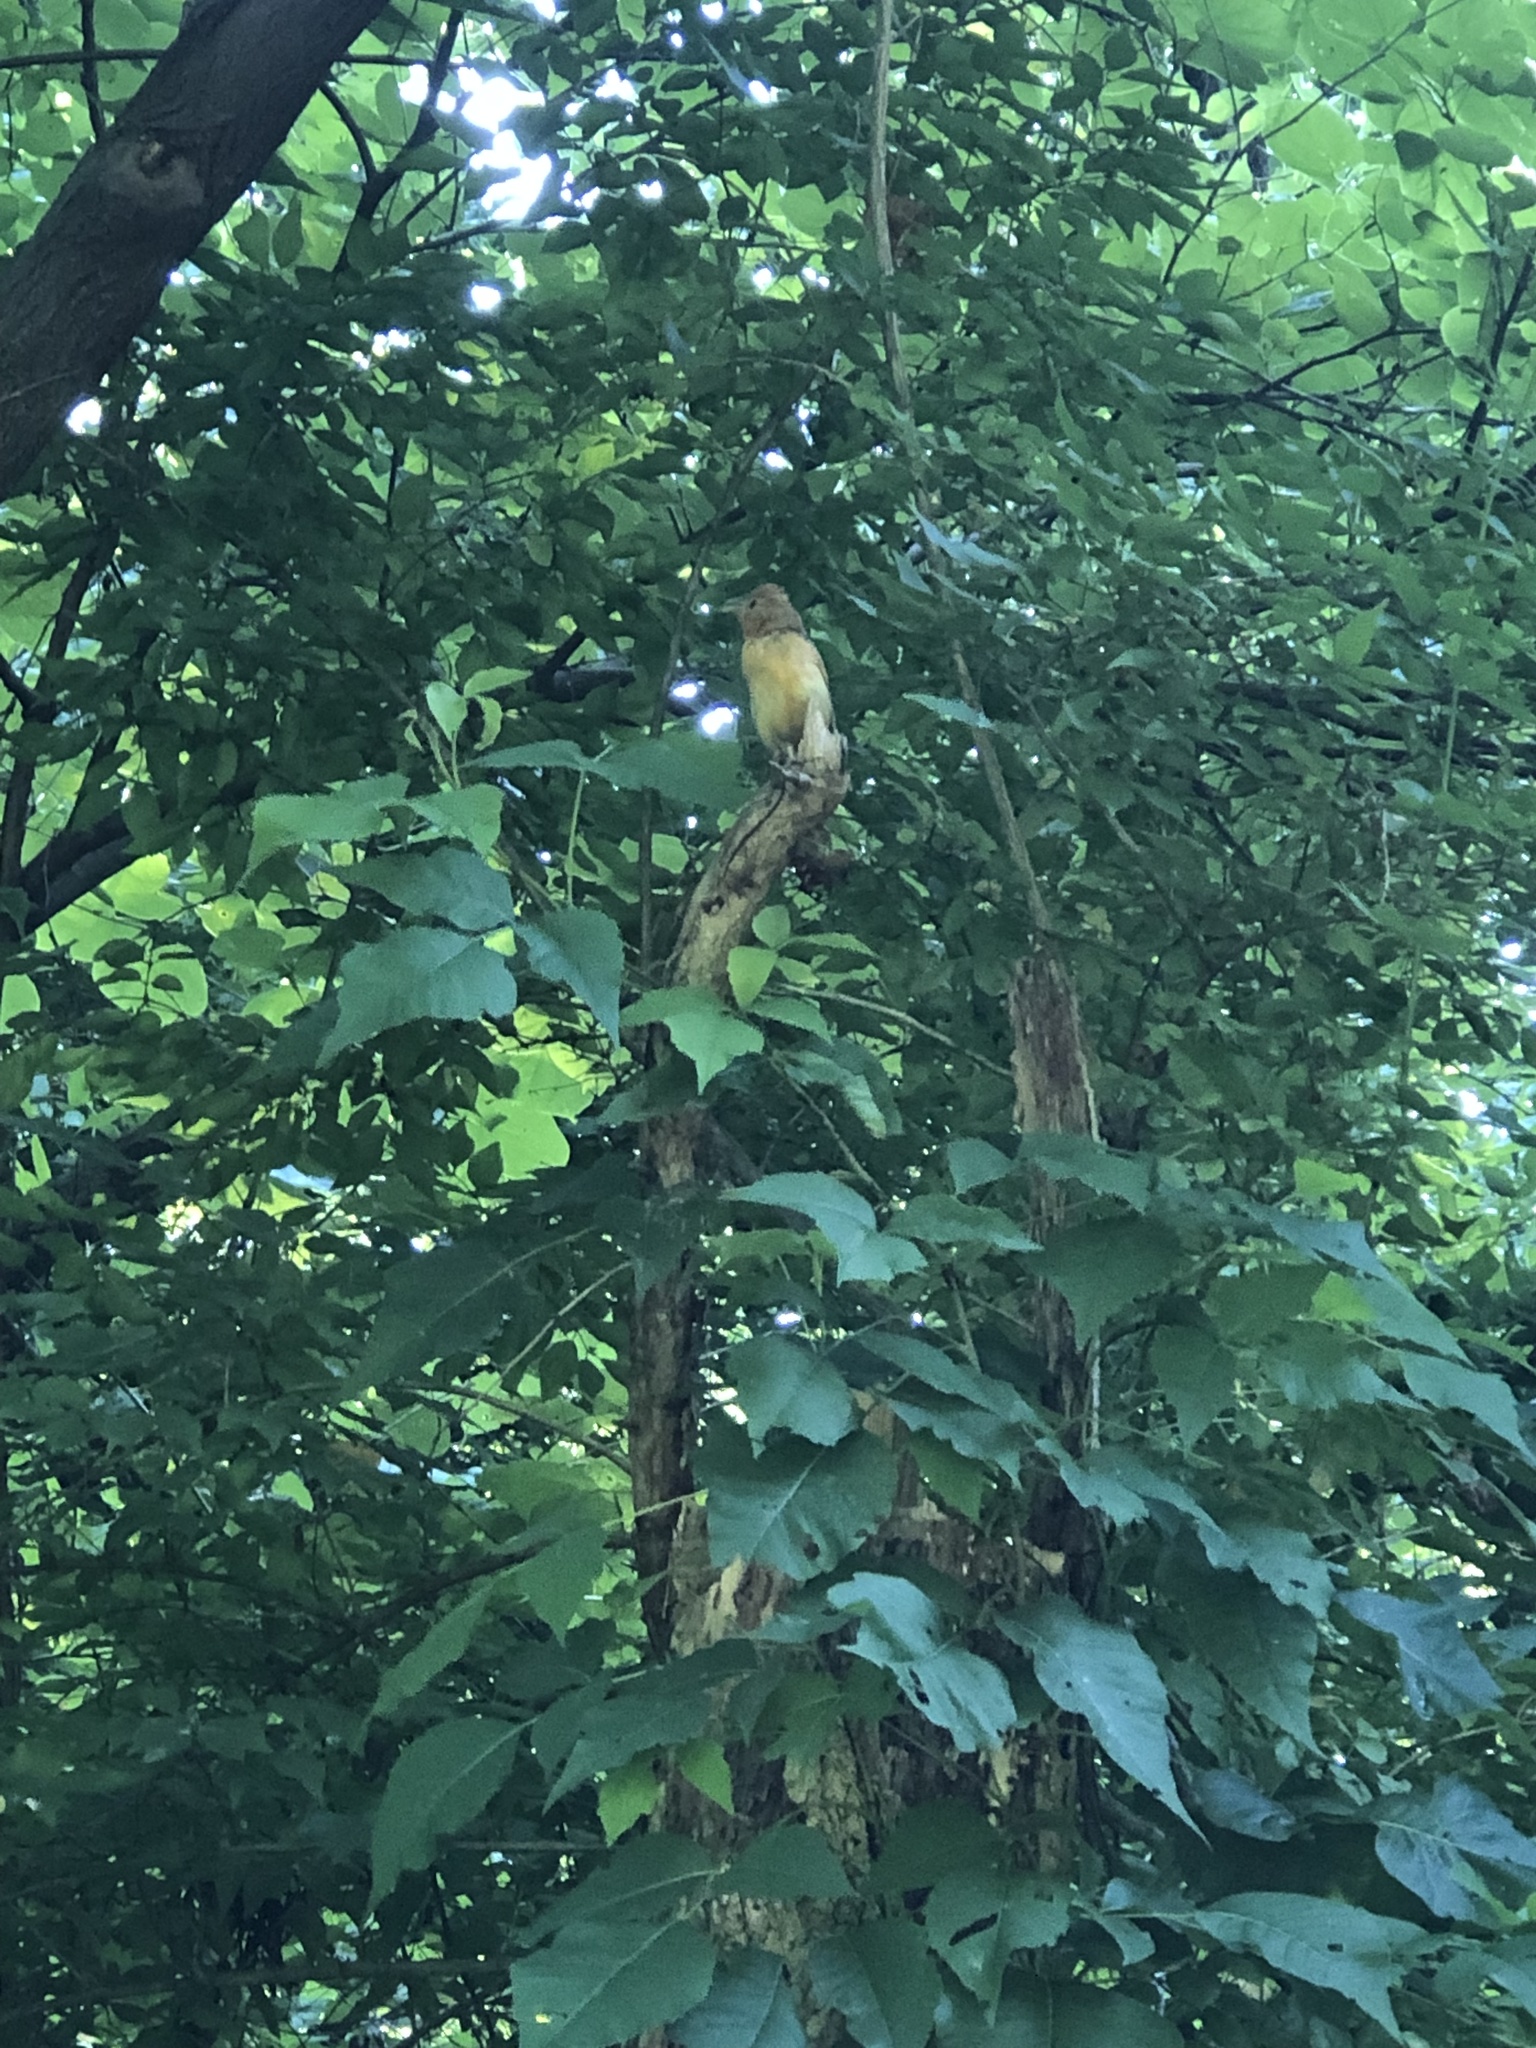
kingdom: Animalia
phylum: Chordata
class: Aves
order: Passeriformes
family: Cardinalidae
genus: Piranga
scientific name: Piranga rubra
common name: Summer tanager
